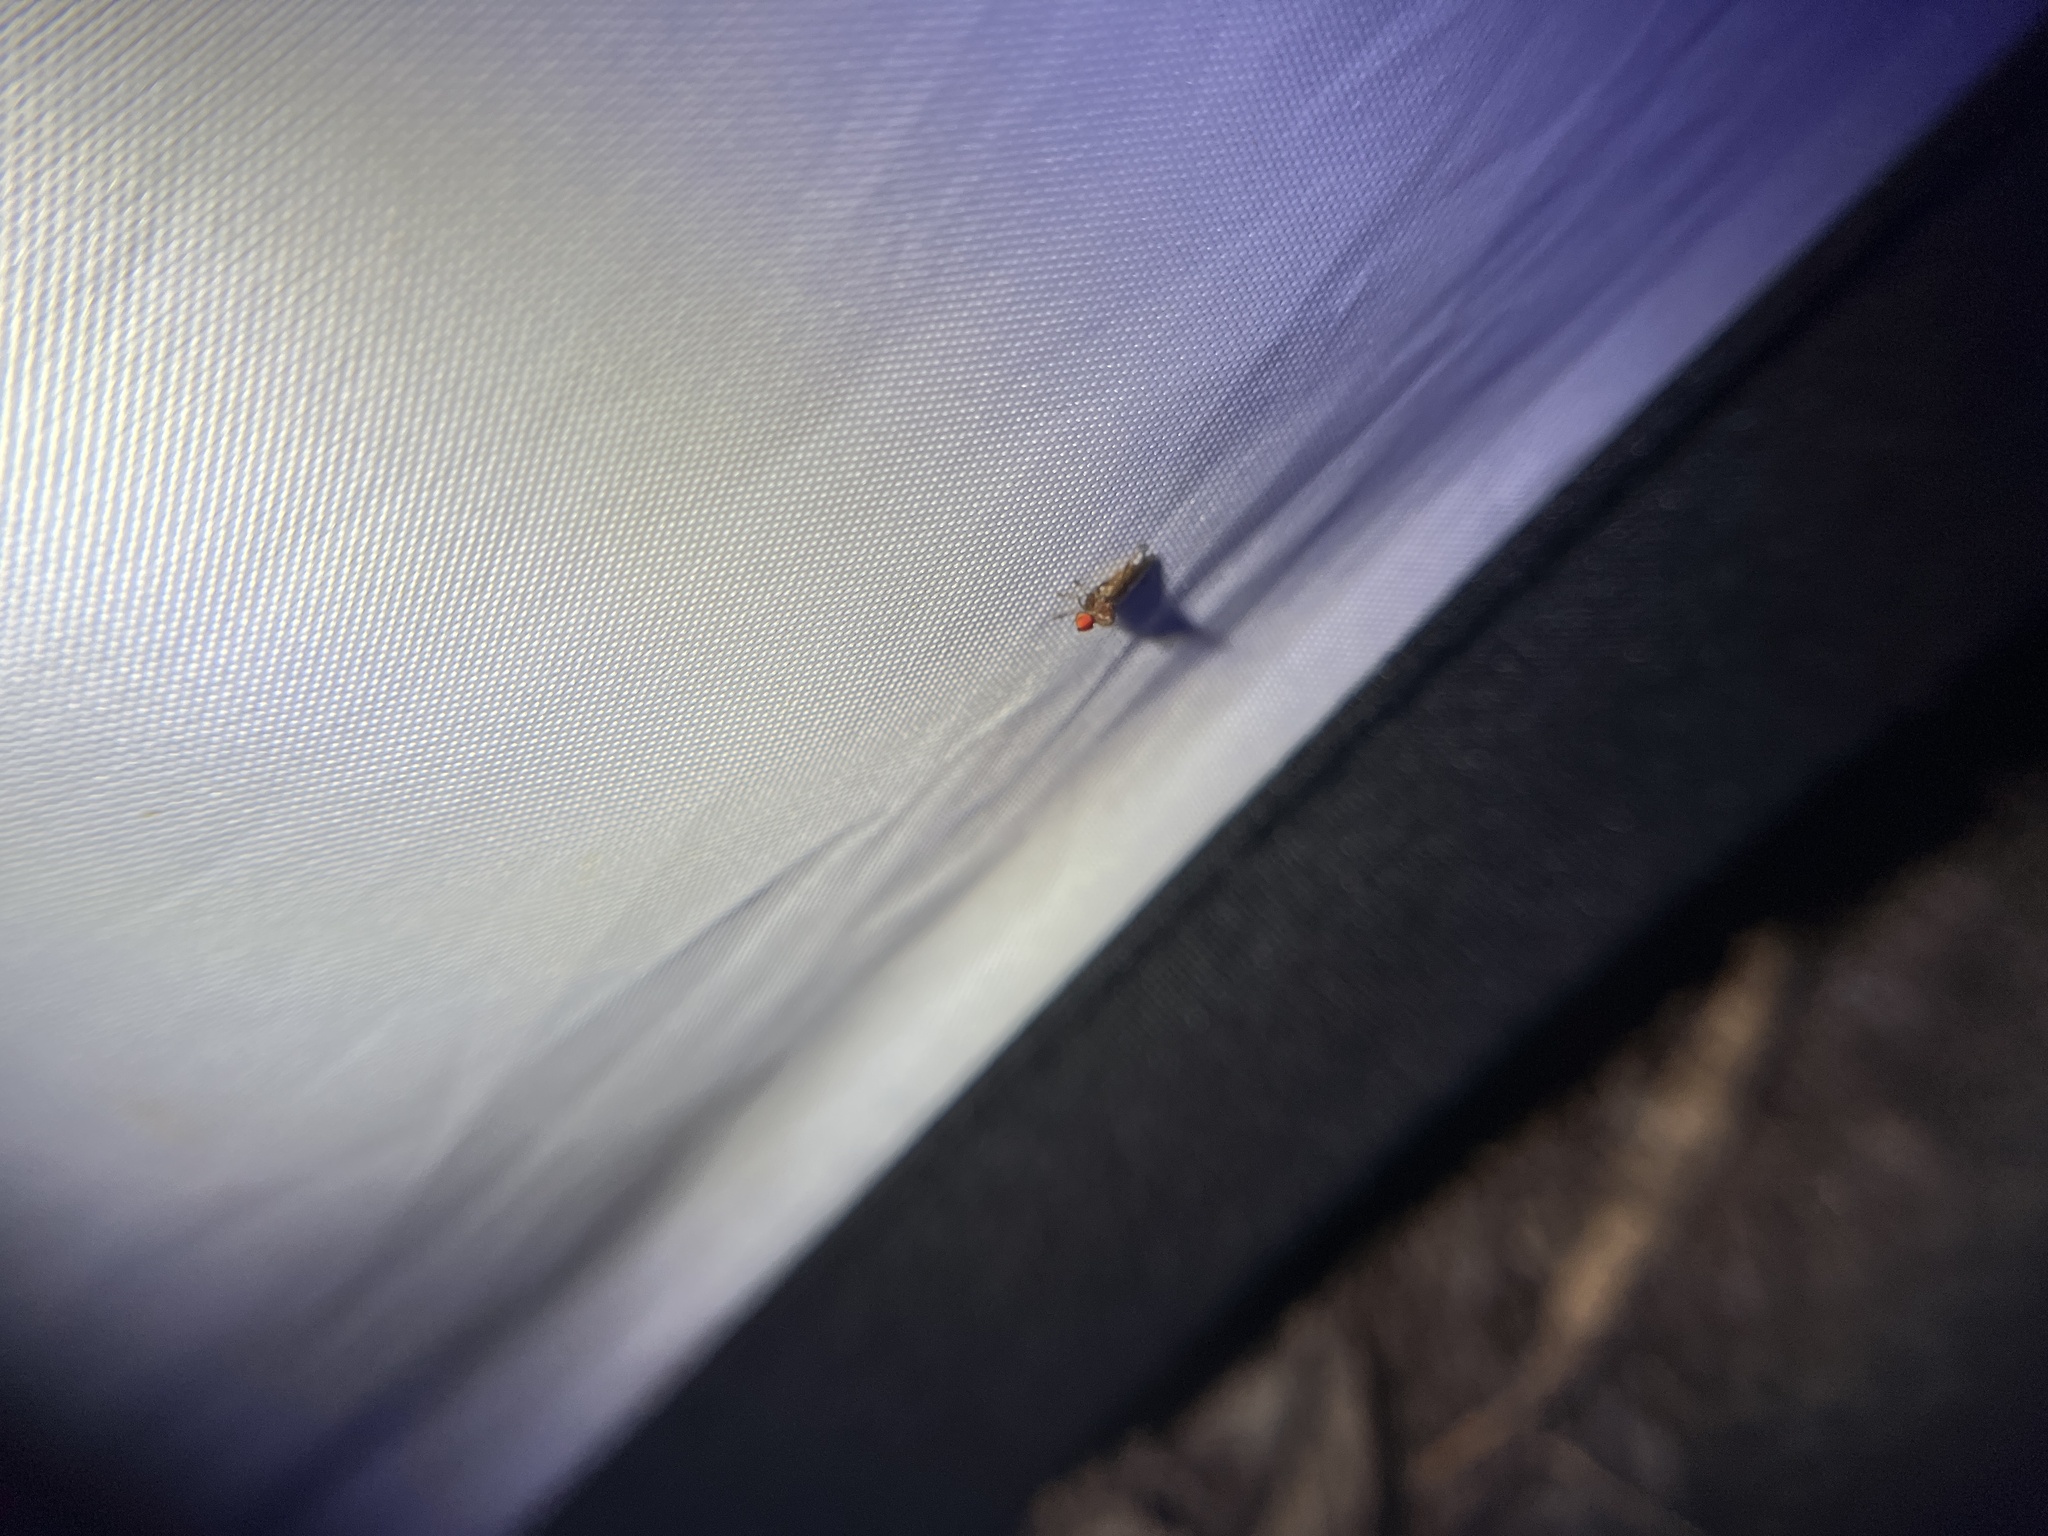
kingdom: Animalia
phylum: Arthropoda
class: Insecta
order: Diptera
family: Hybotidae
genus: Syneches
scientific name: Syneches simplex
